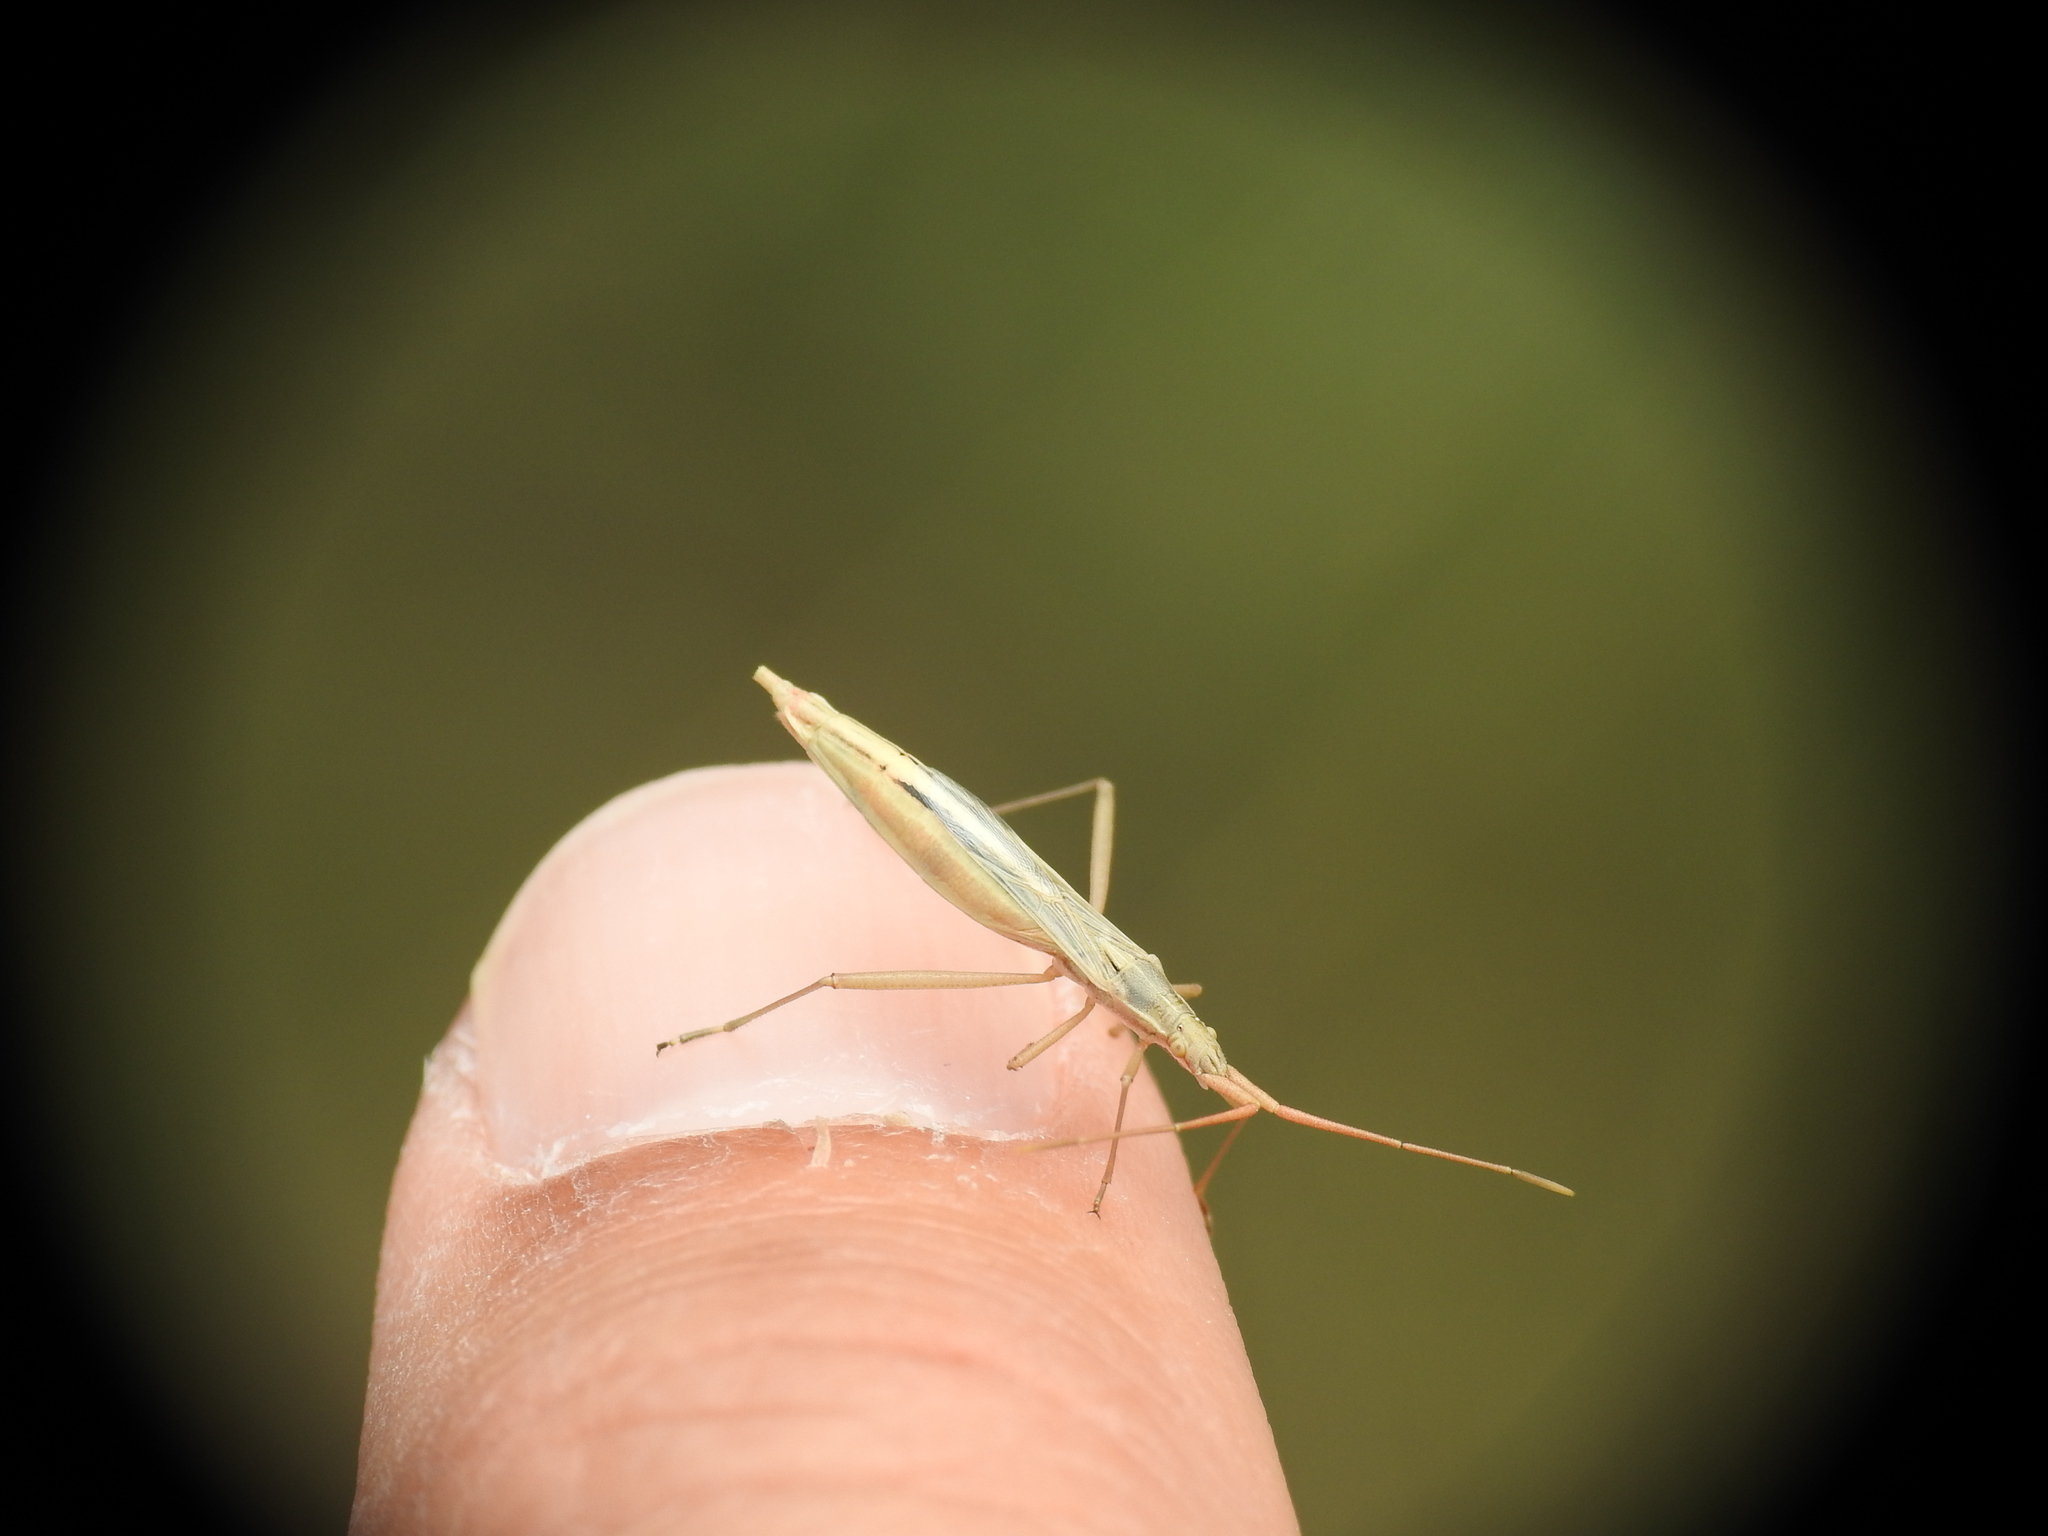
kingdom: Animalia
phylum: Arthropoda
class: Insecta
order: Hemiptera
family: Rhopalidae
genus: Chorosoma
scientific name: Chorosoma schillingii
